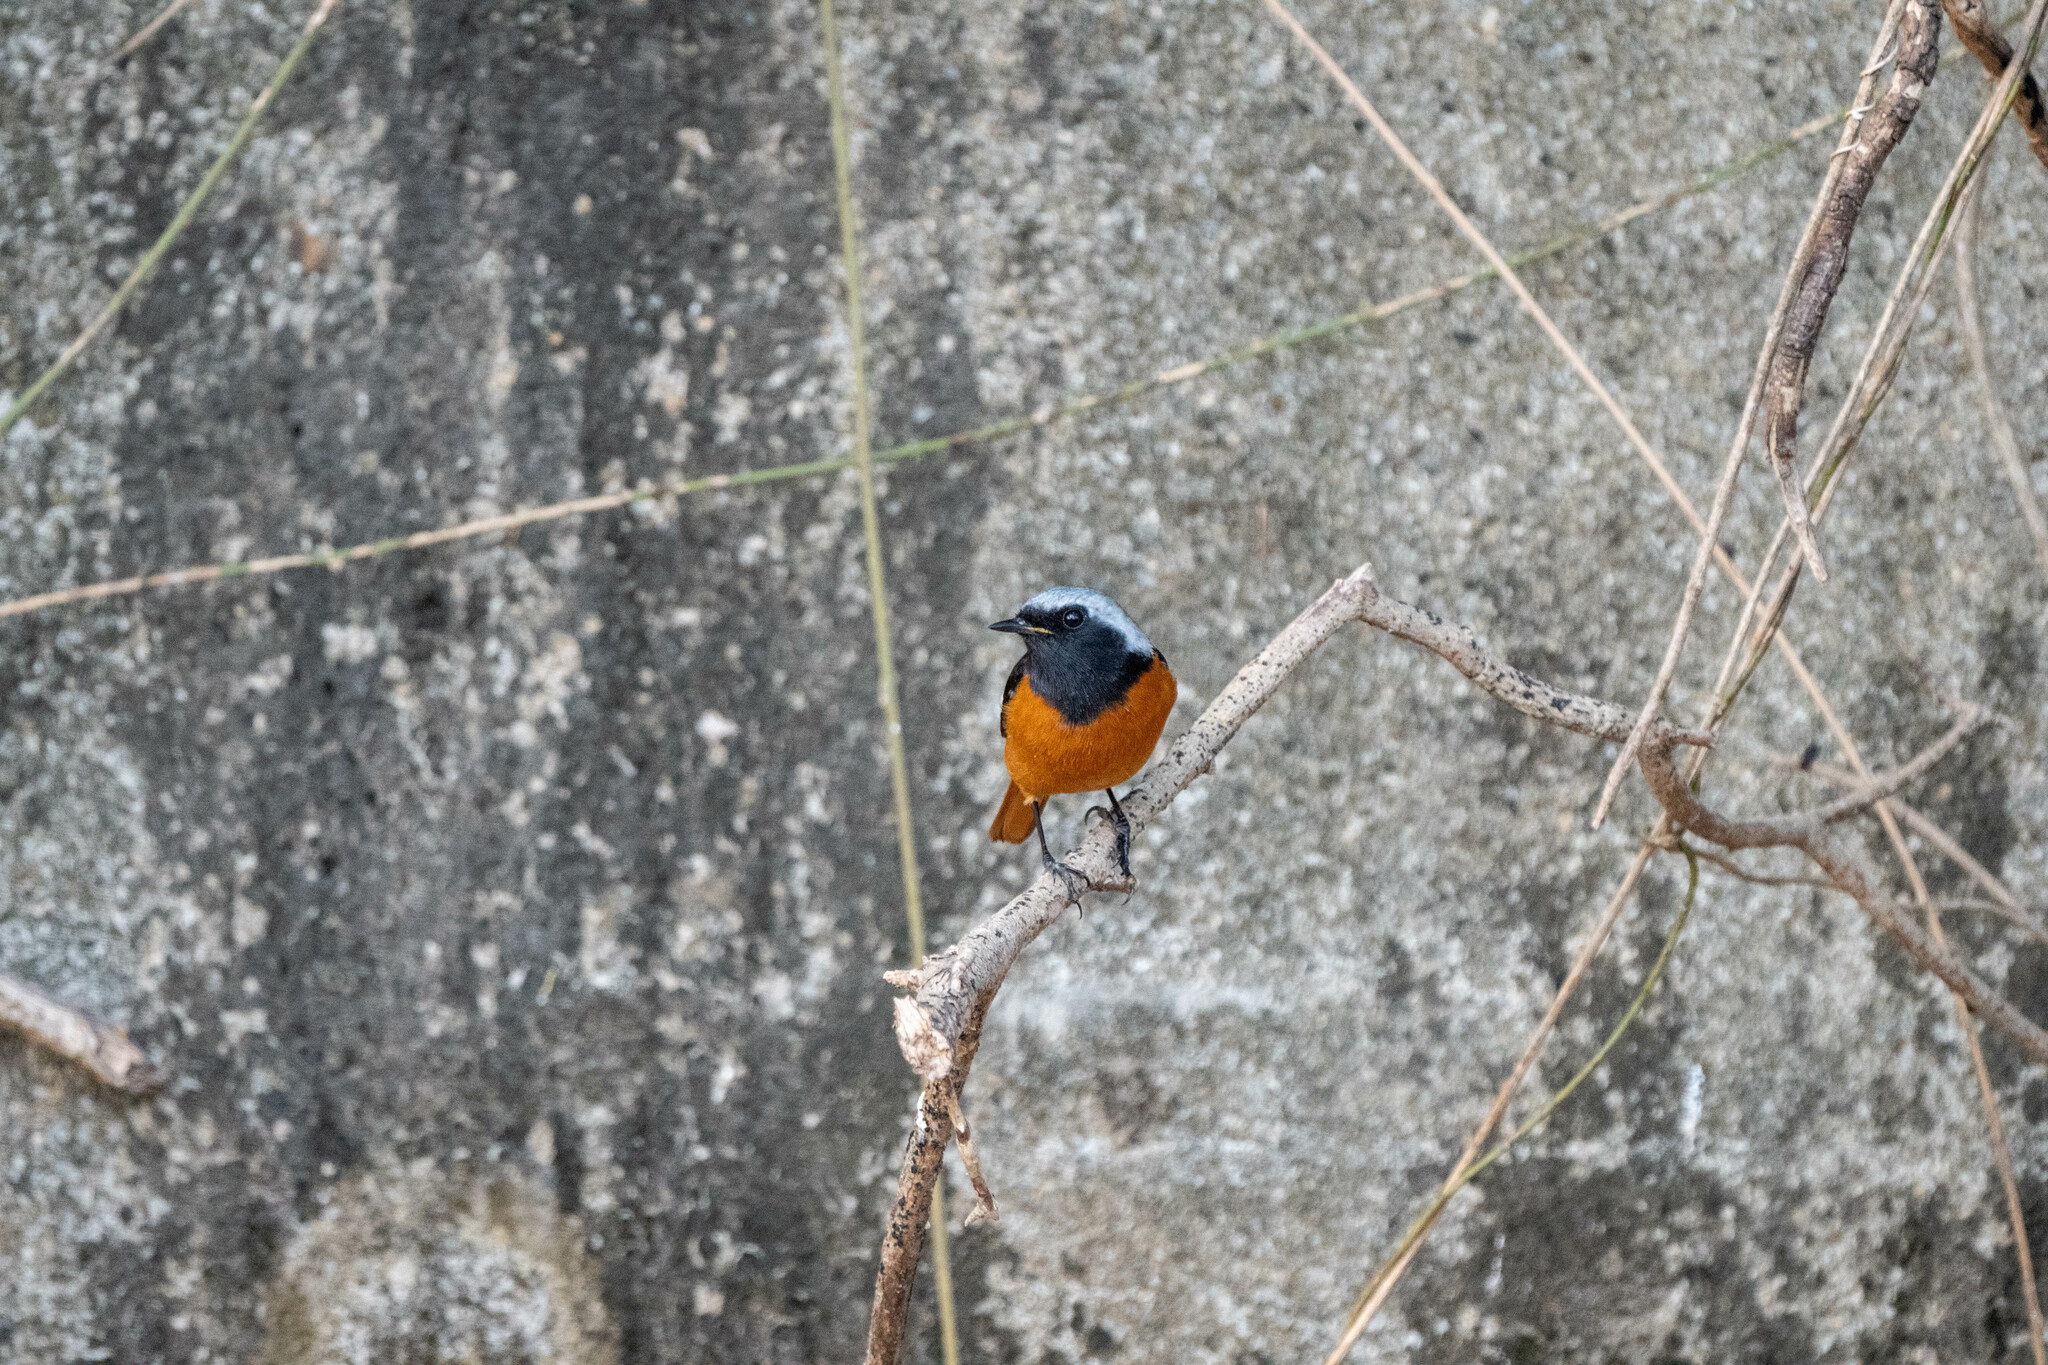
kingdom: Animalia
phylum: Chordata
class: Aves
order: Passeriformes
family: Muscicapidae
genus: Phoenicurus
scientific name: Phoenicurus auroreus
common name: Daurian redstart
